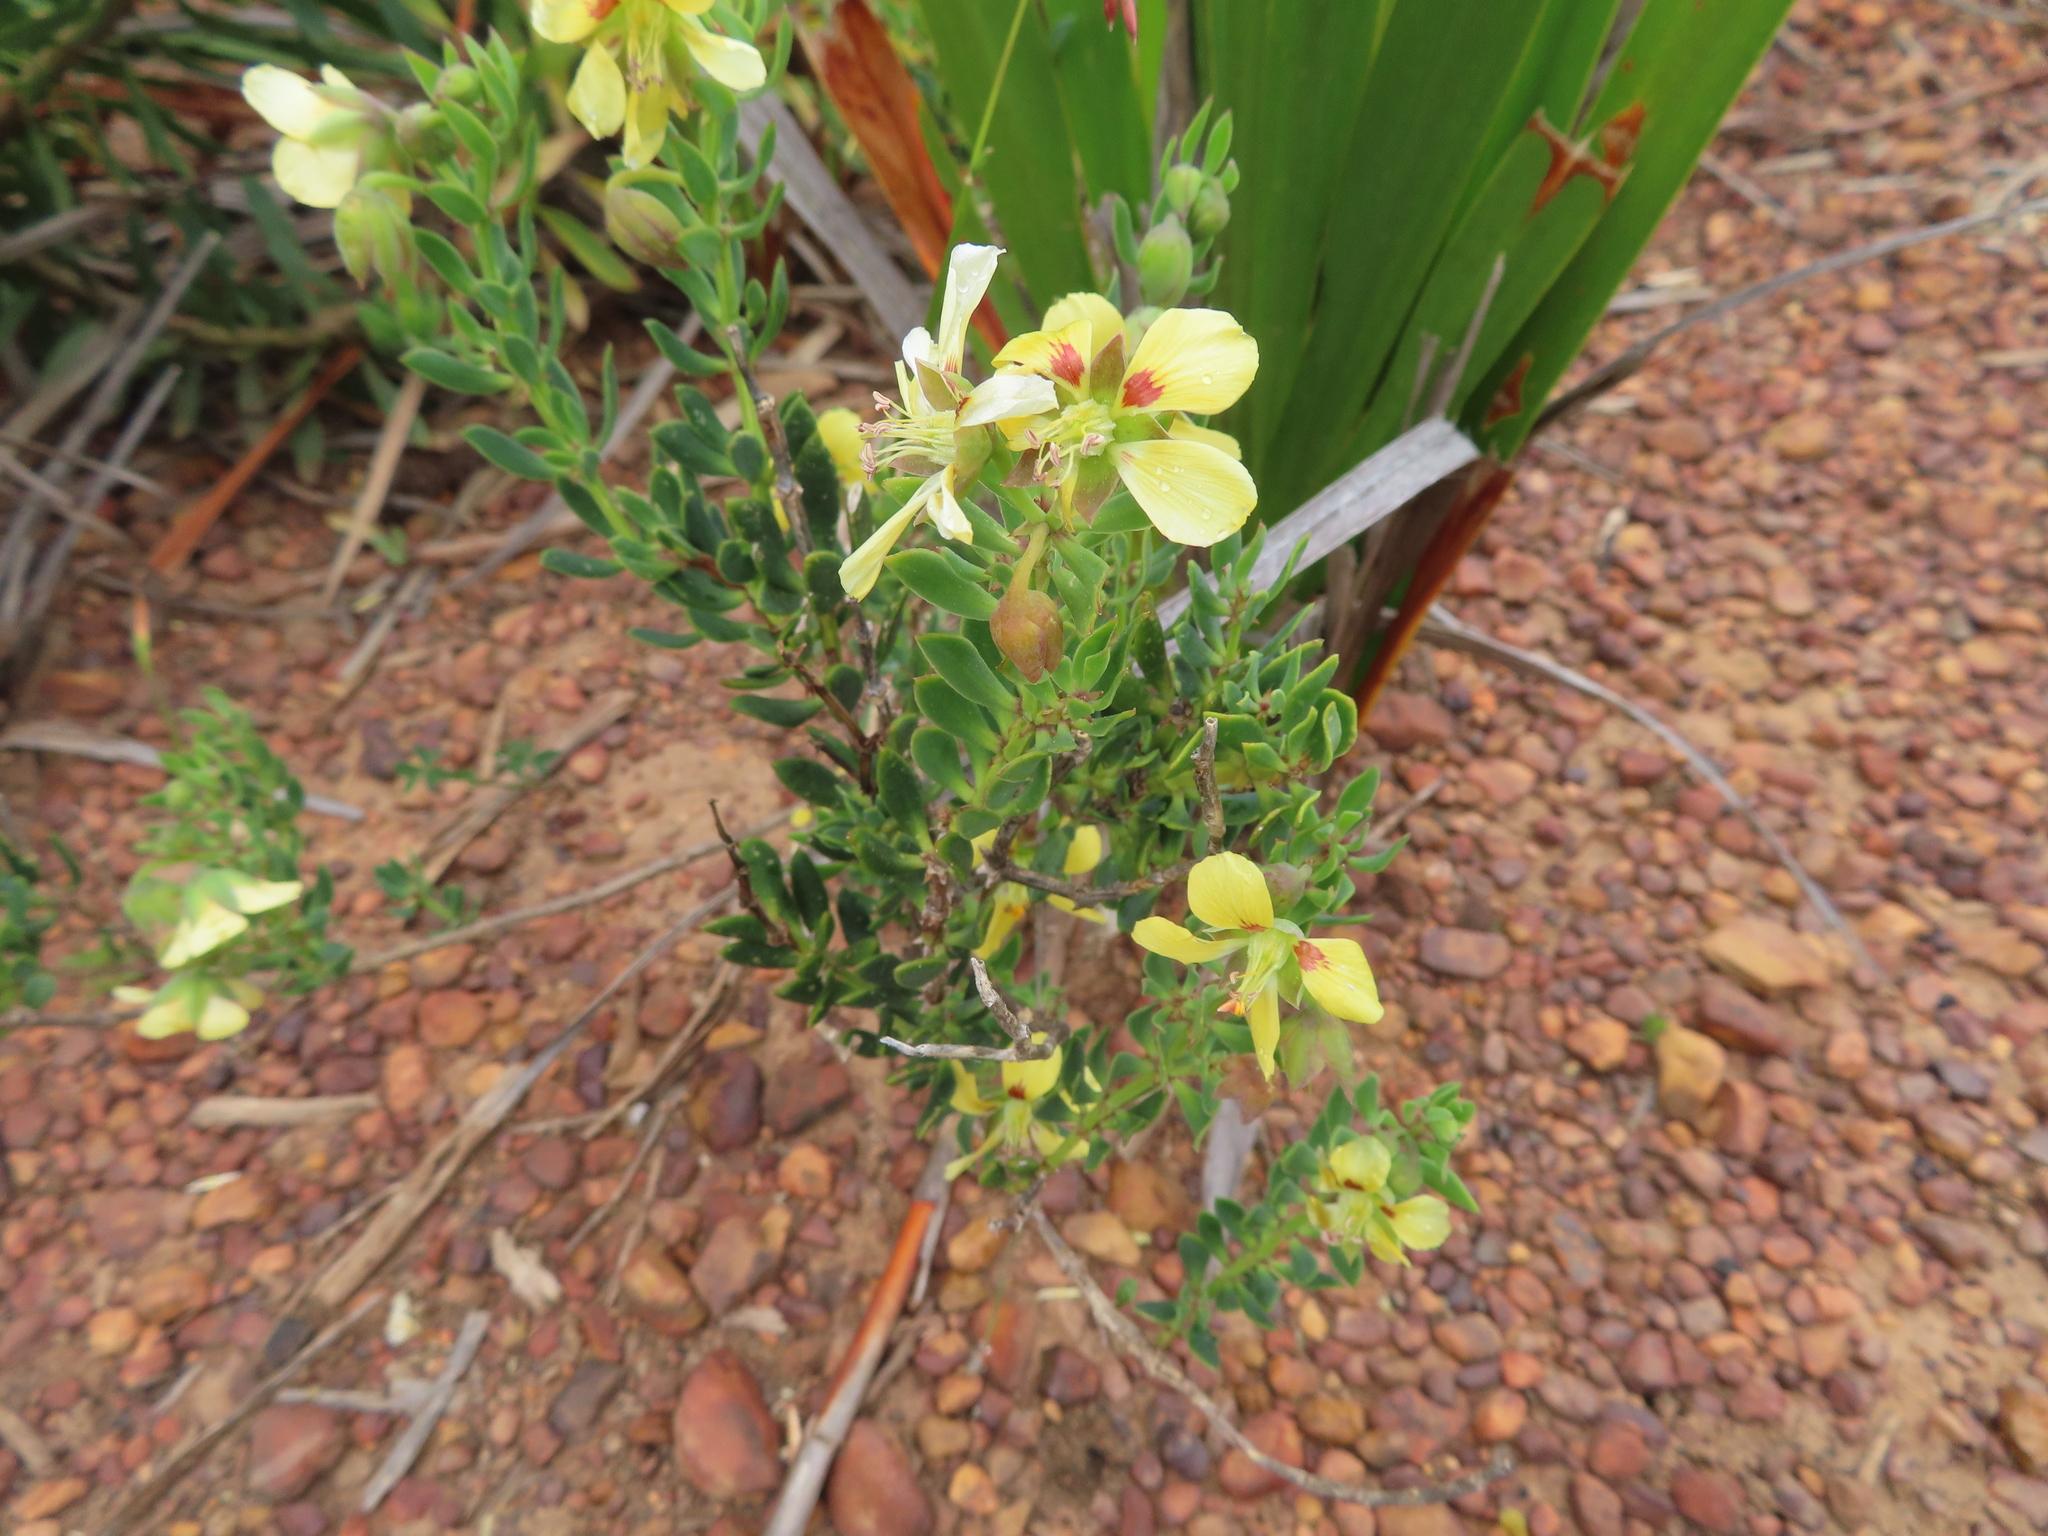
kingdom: Plantae
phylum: Tracheophyta
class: Magnoliopsida
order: Zygophyllales
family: Zygophyllaceae
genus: Roepera
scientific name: Roepera flexuosa
